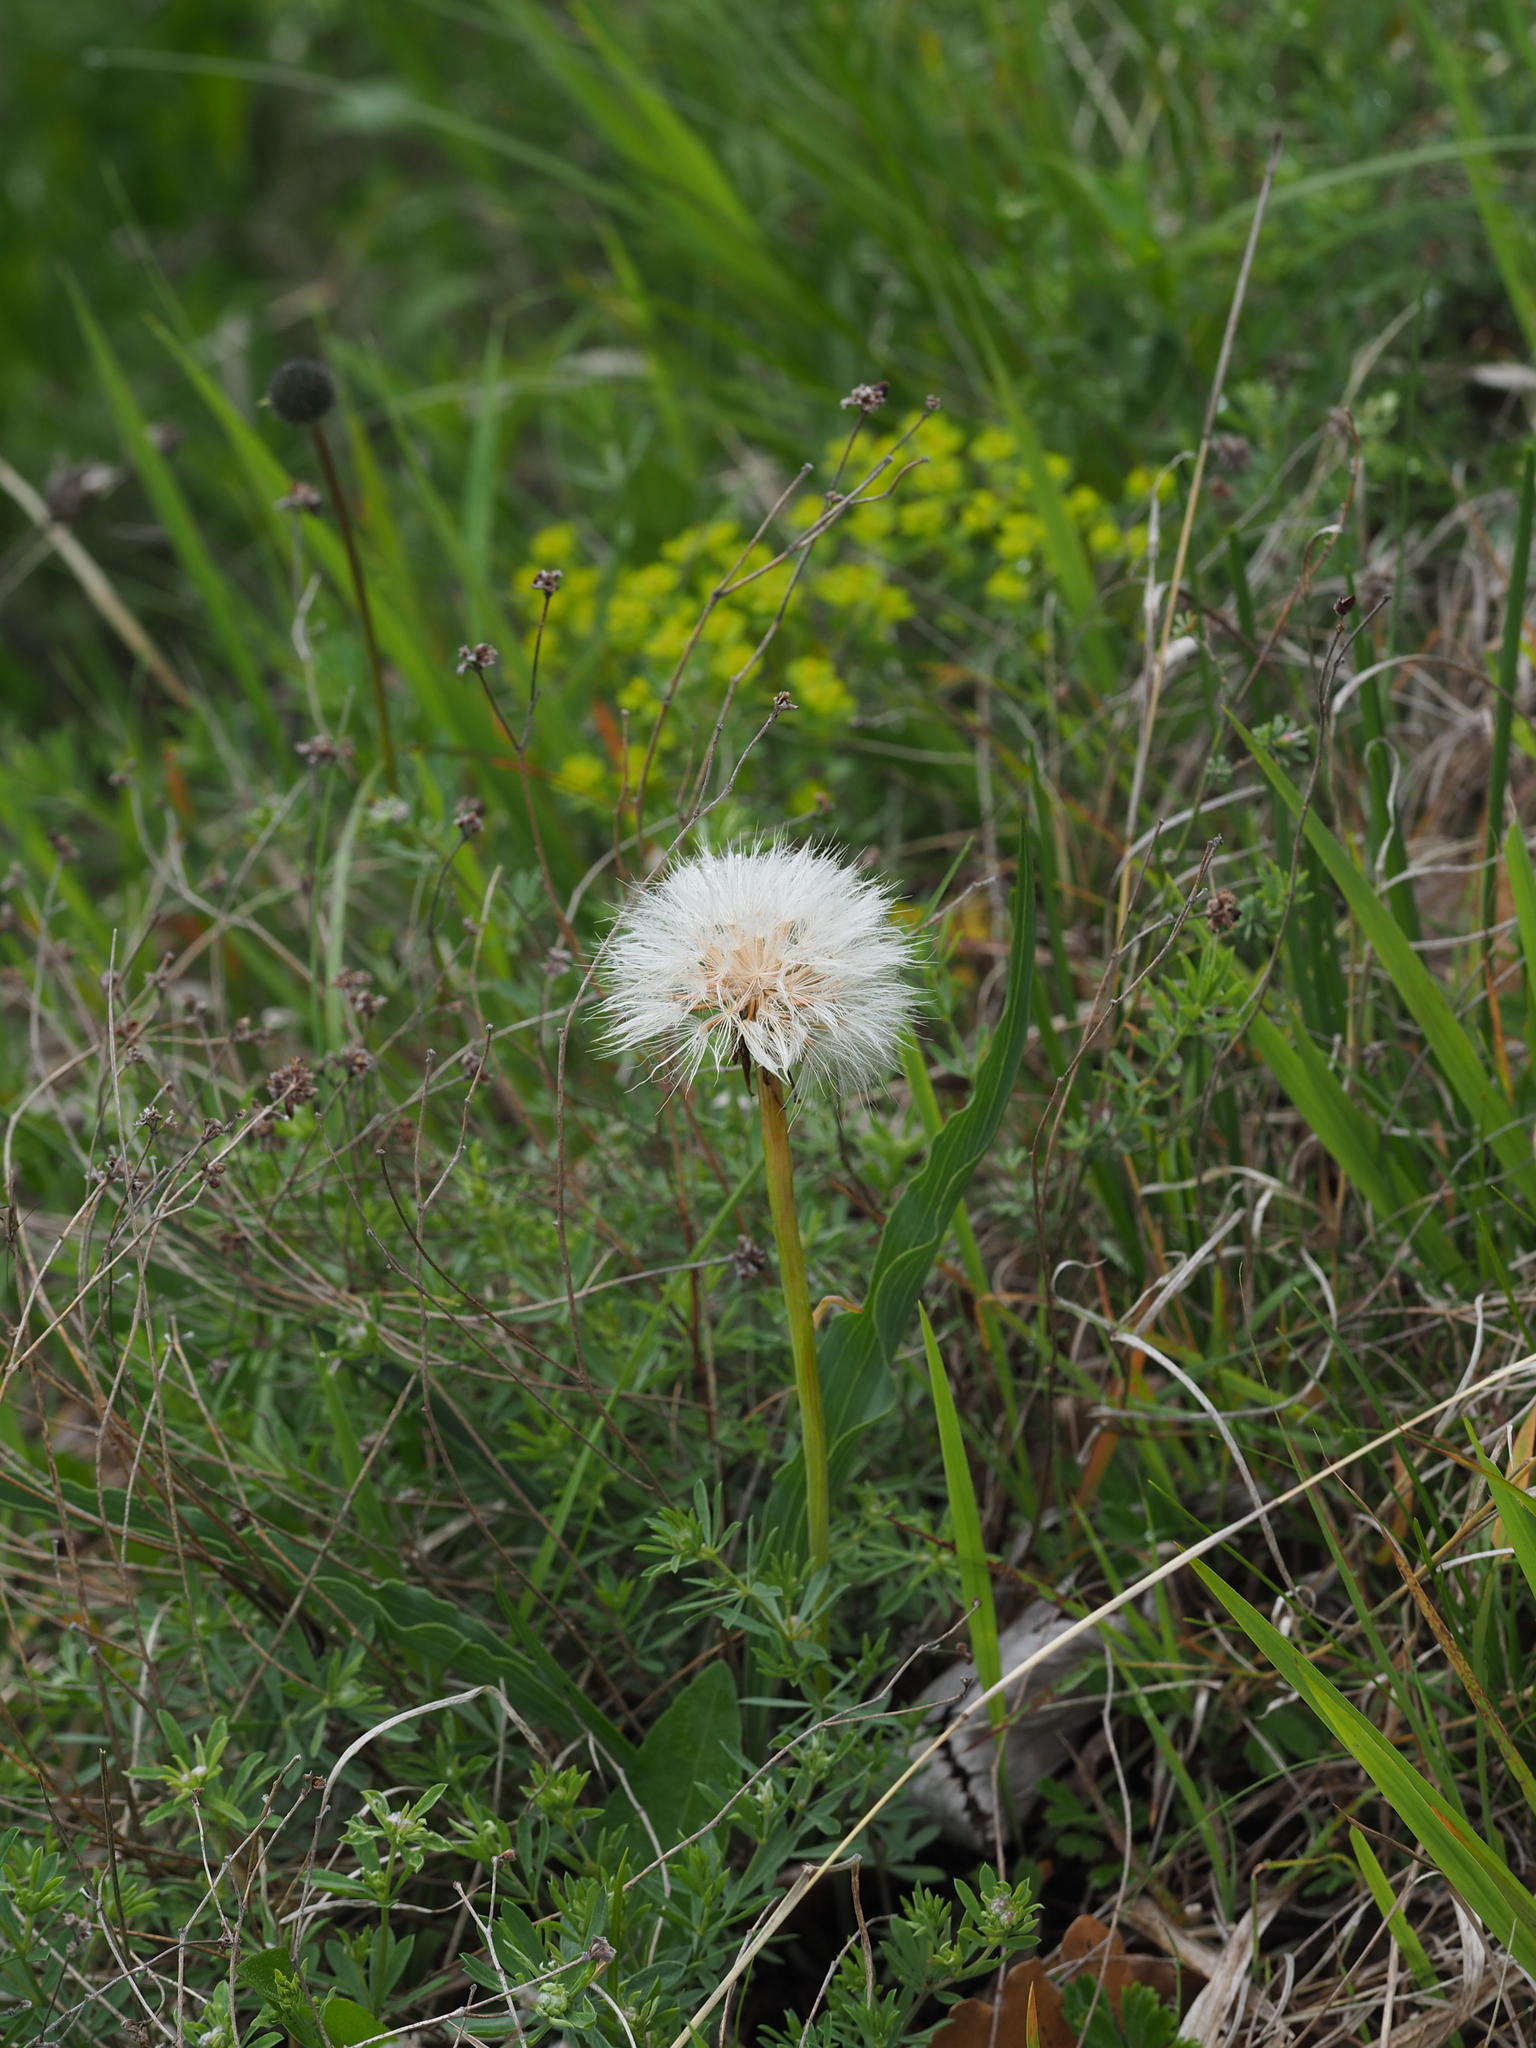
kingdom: Plantae
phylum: Tracheophyta
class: Magnoliopsida
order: Asterales
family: Asteraceae
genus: Takhtajaniantha
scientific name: Takhtajaniantha austriaca
